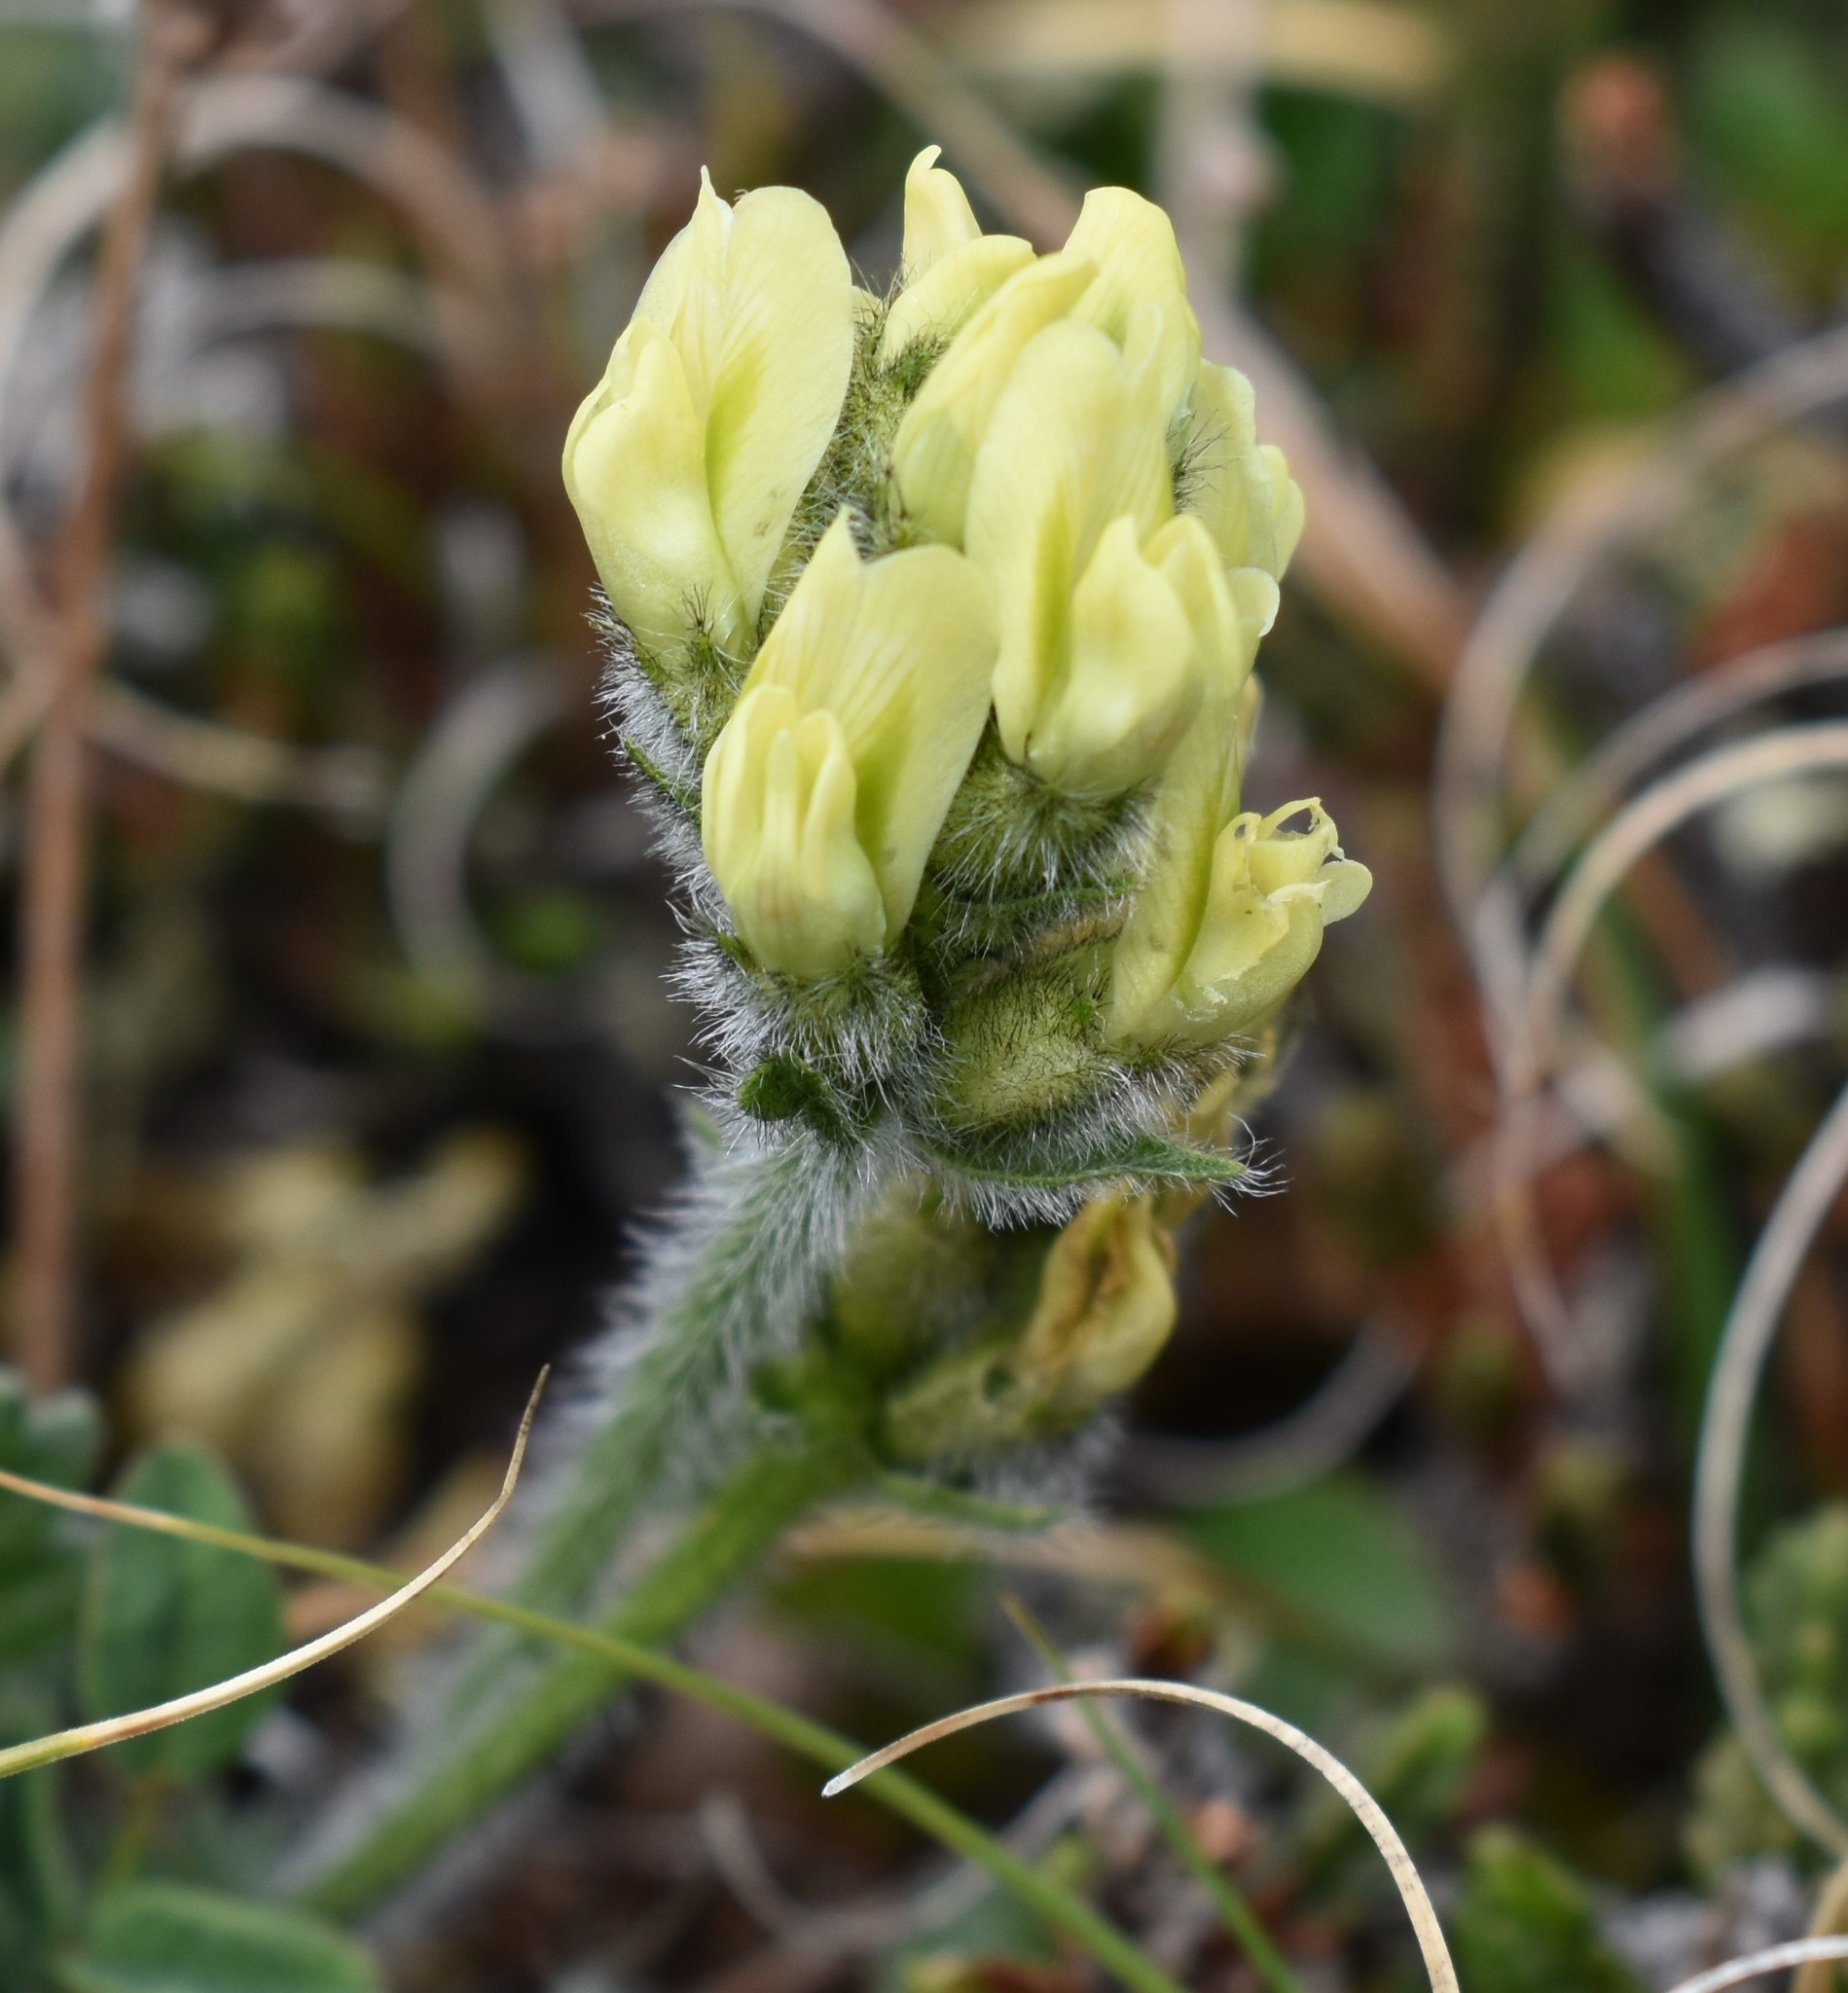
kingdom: Plantae
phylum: Tracheophyta
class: Magnoliopsida
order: Fabales
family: Fabaceae
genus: Oxytropis
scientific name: Oxytropis maydelliana
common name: Maydell's locoweed
